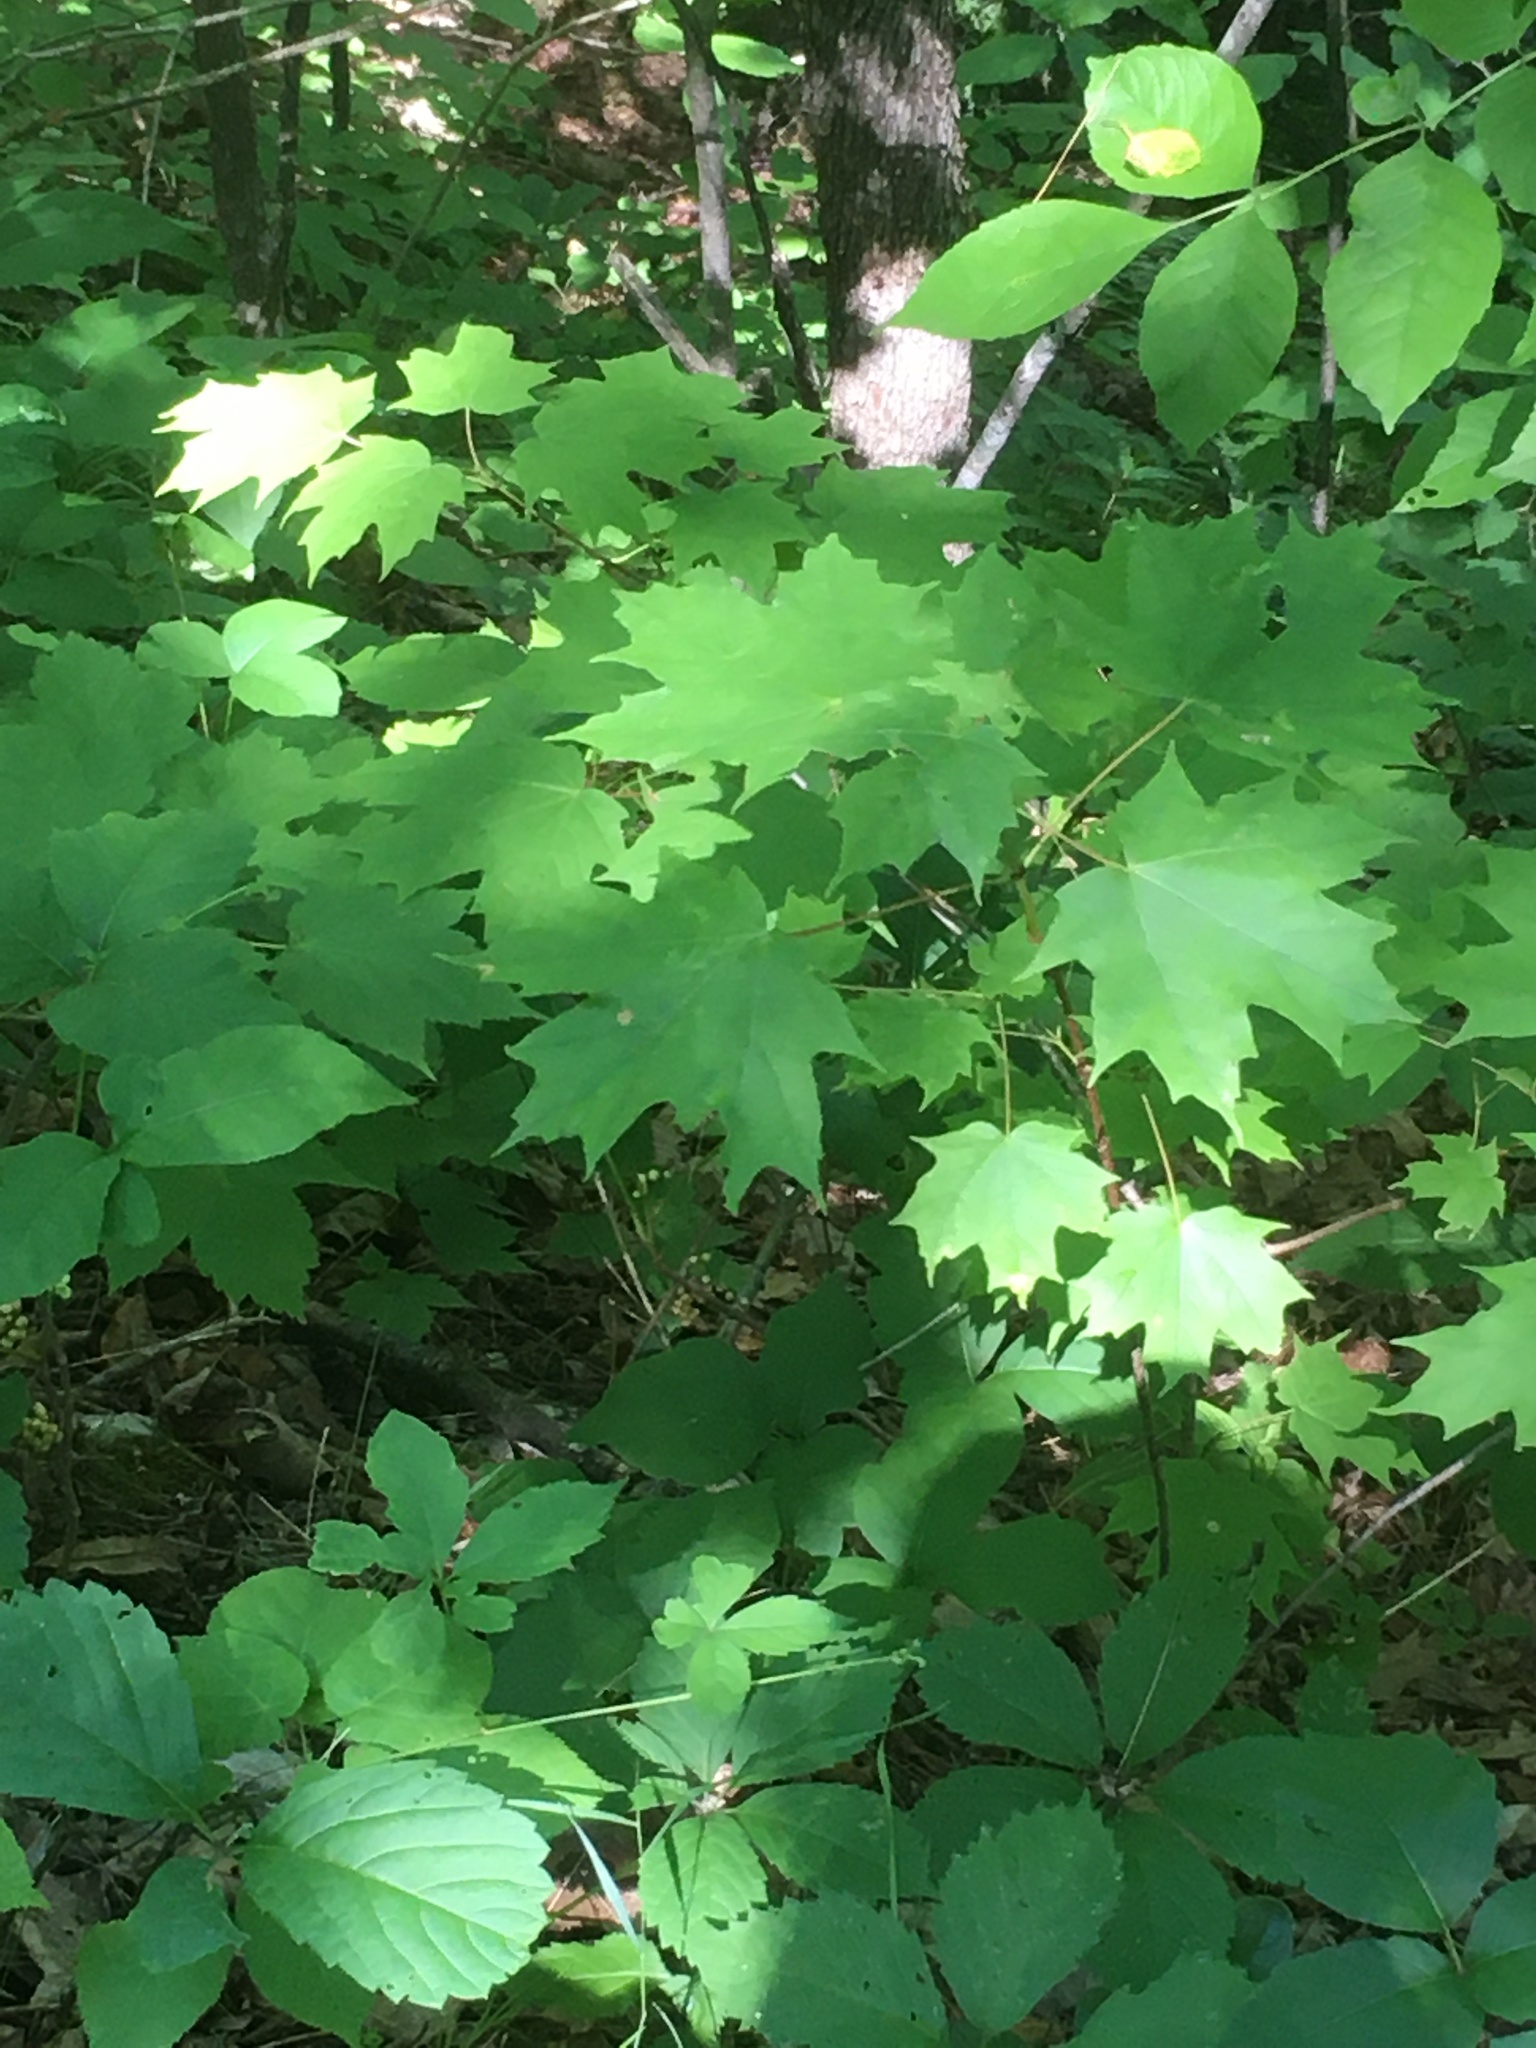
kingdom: Plantae
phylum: Tracheophyta
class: Magnoliopsida
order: Sapindales
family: Sapindaceae
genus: Acer
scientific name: Acer saccharum
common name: Sugar maple
